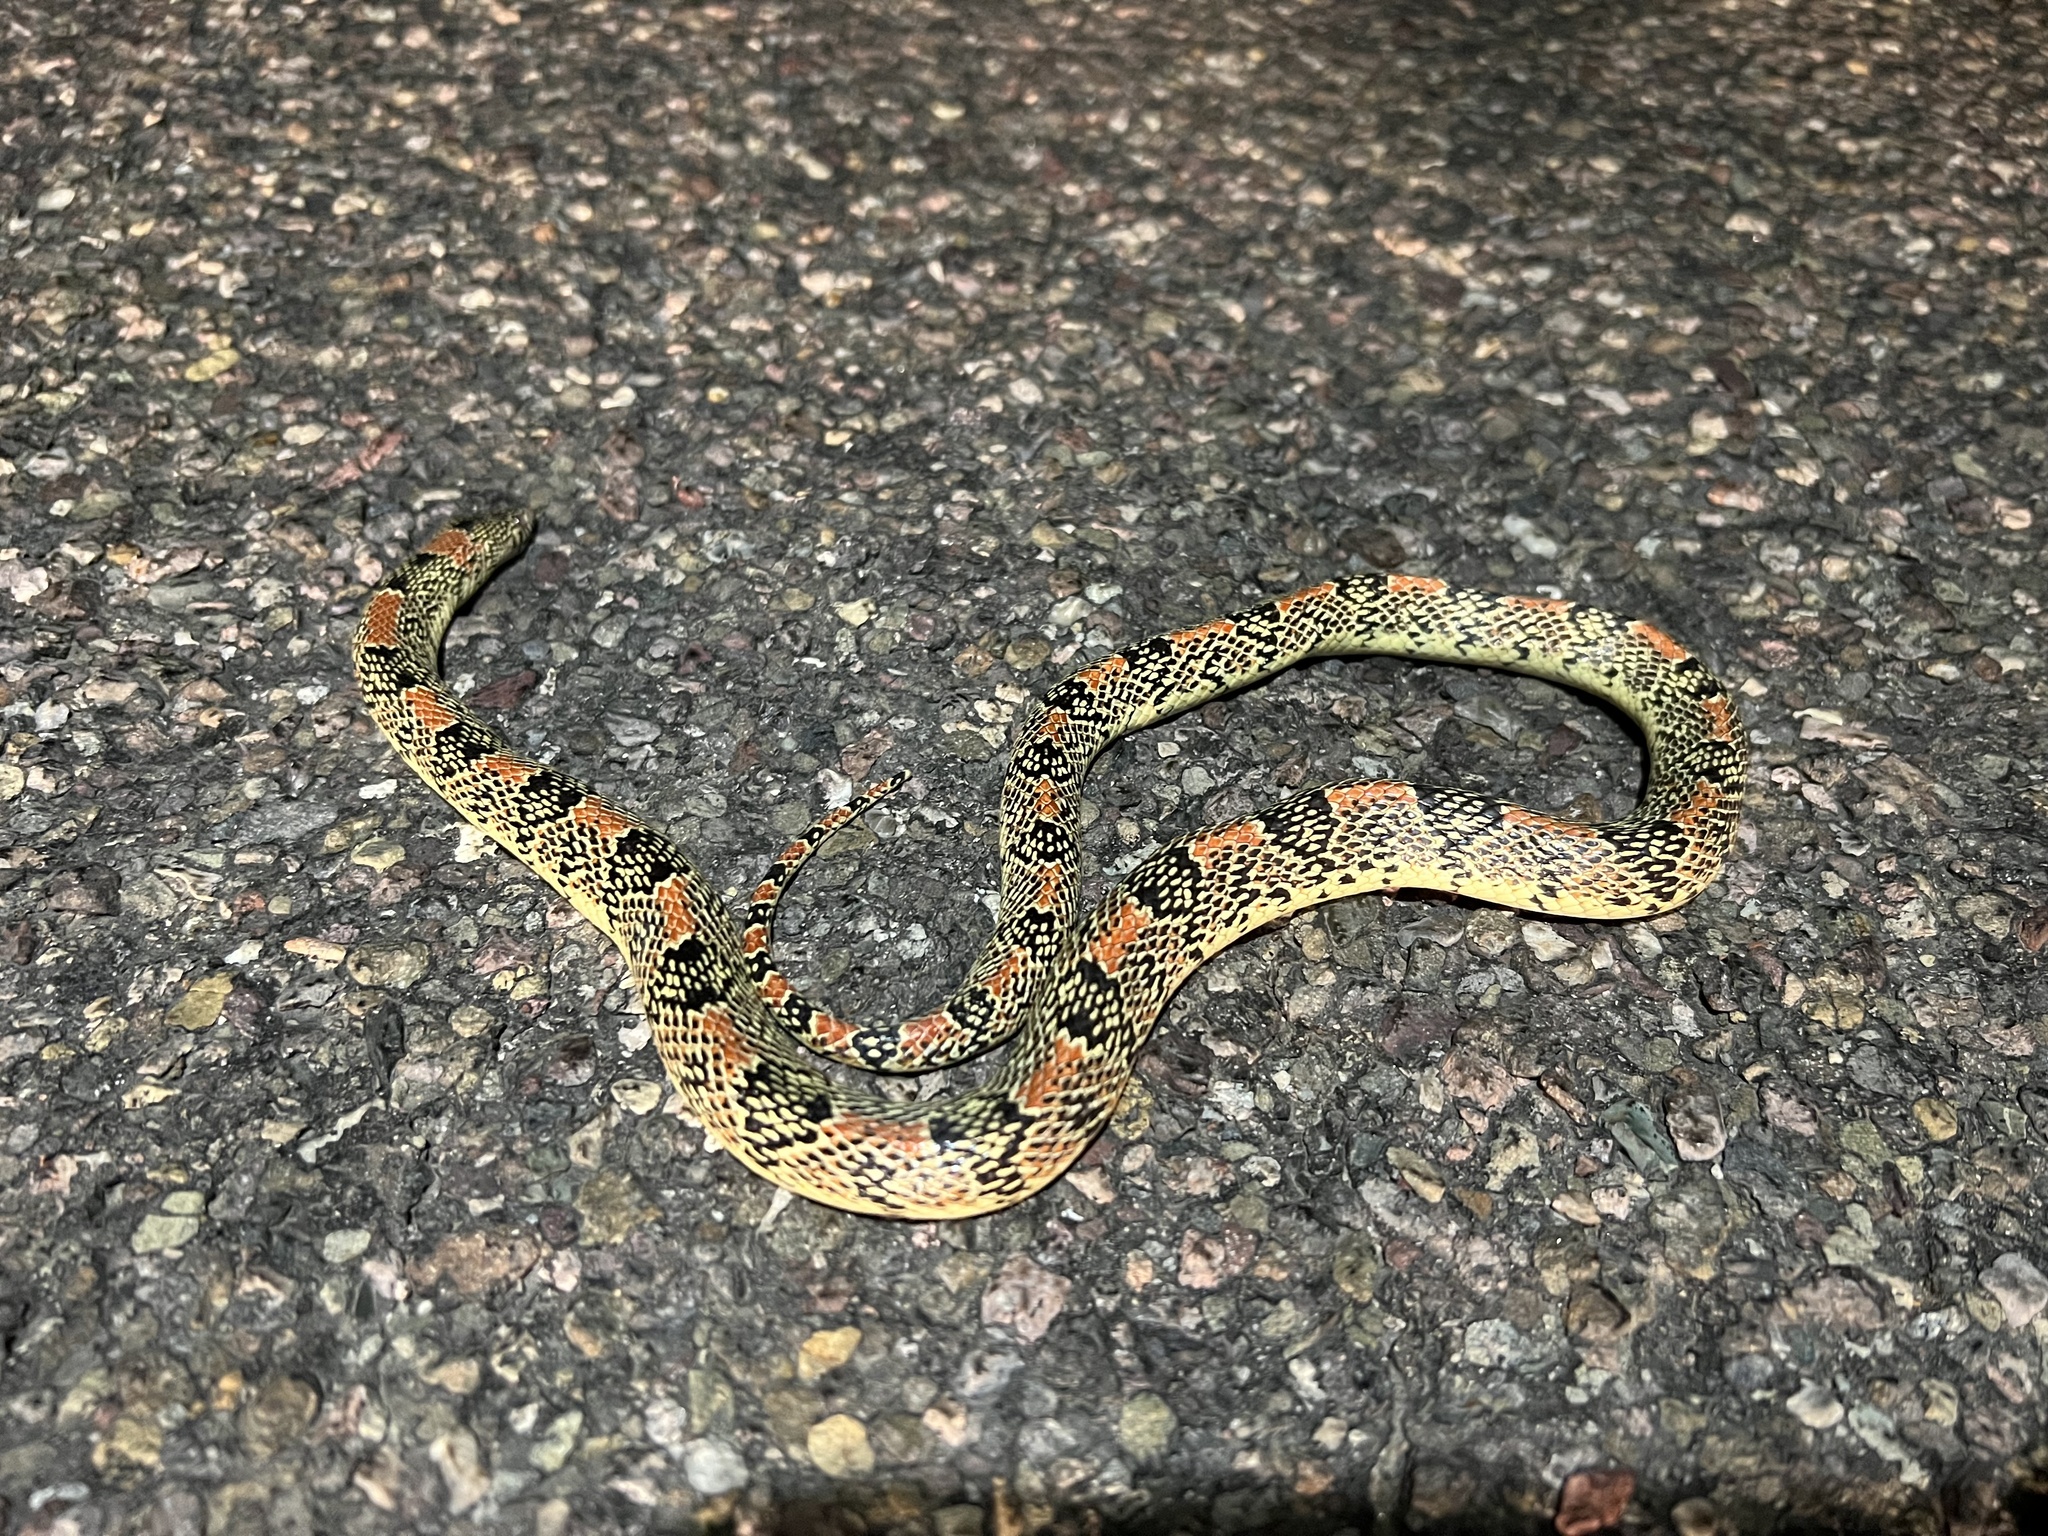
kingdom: Animalia
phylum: Chordata
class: Squamata
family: Colubridae
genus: Rhinocheilus
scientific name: Rhinocheilus lecontei
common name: Longnose snake
